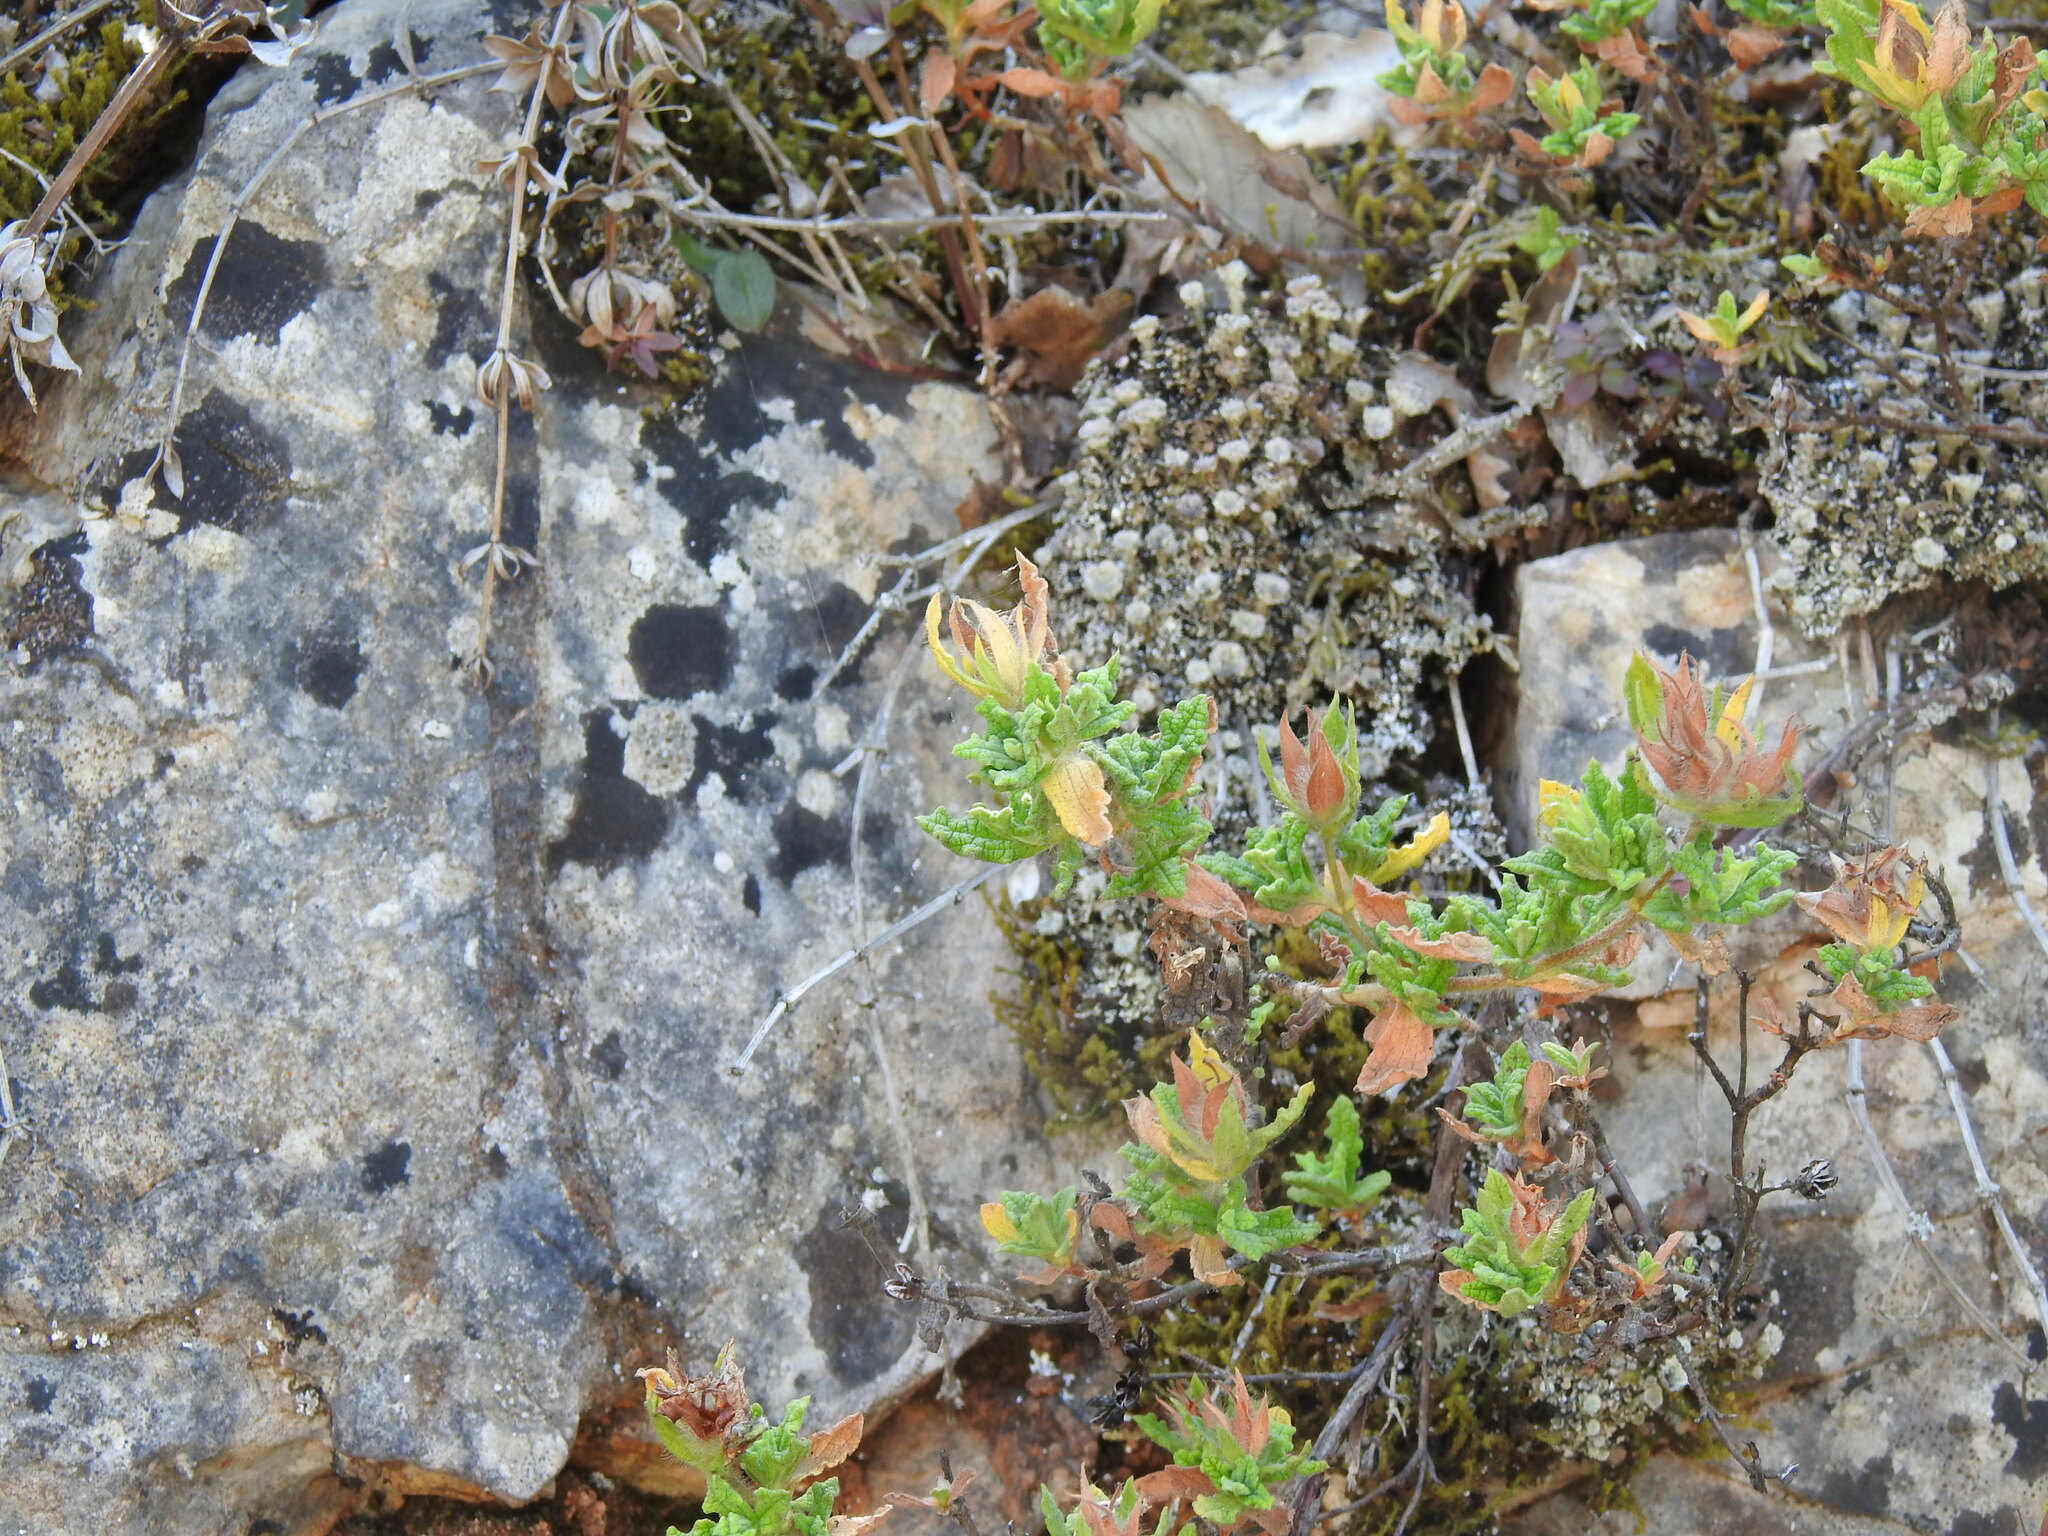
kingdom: Plantae
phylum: Tracheophyta
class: Magnoliopsida
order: Malvales
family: Cistaceae
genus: Cistus
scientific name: Cistus crispus
